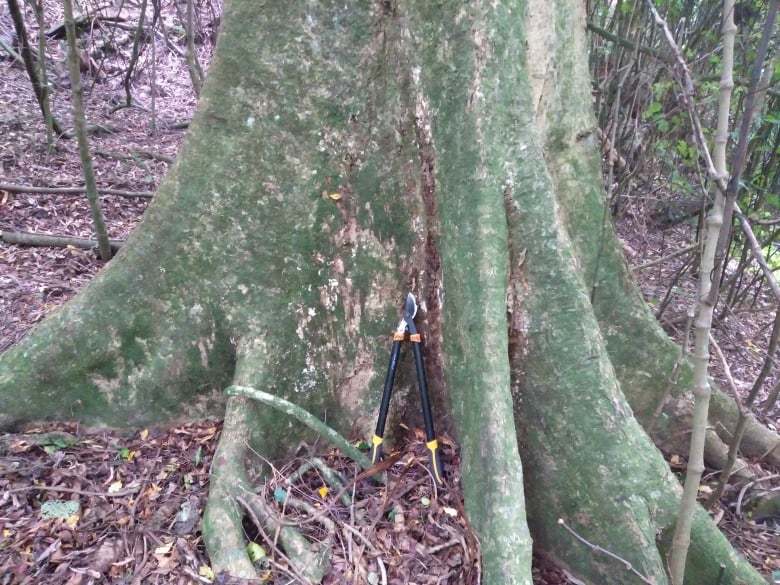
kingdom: Plantae
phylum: Tracheophyta
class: Magnoliopsida
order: Laurales
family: Atherospermataceae
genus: Laurelia
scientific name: Laurelia novae-zelandiae
